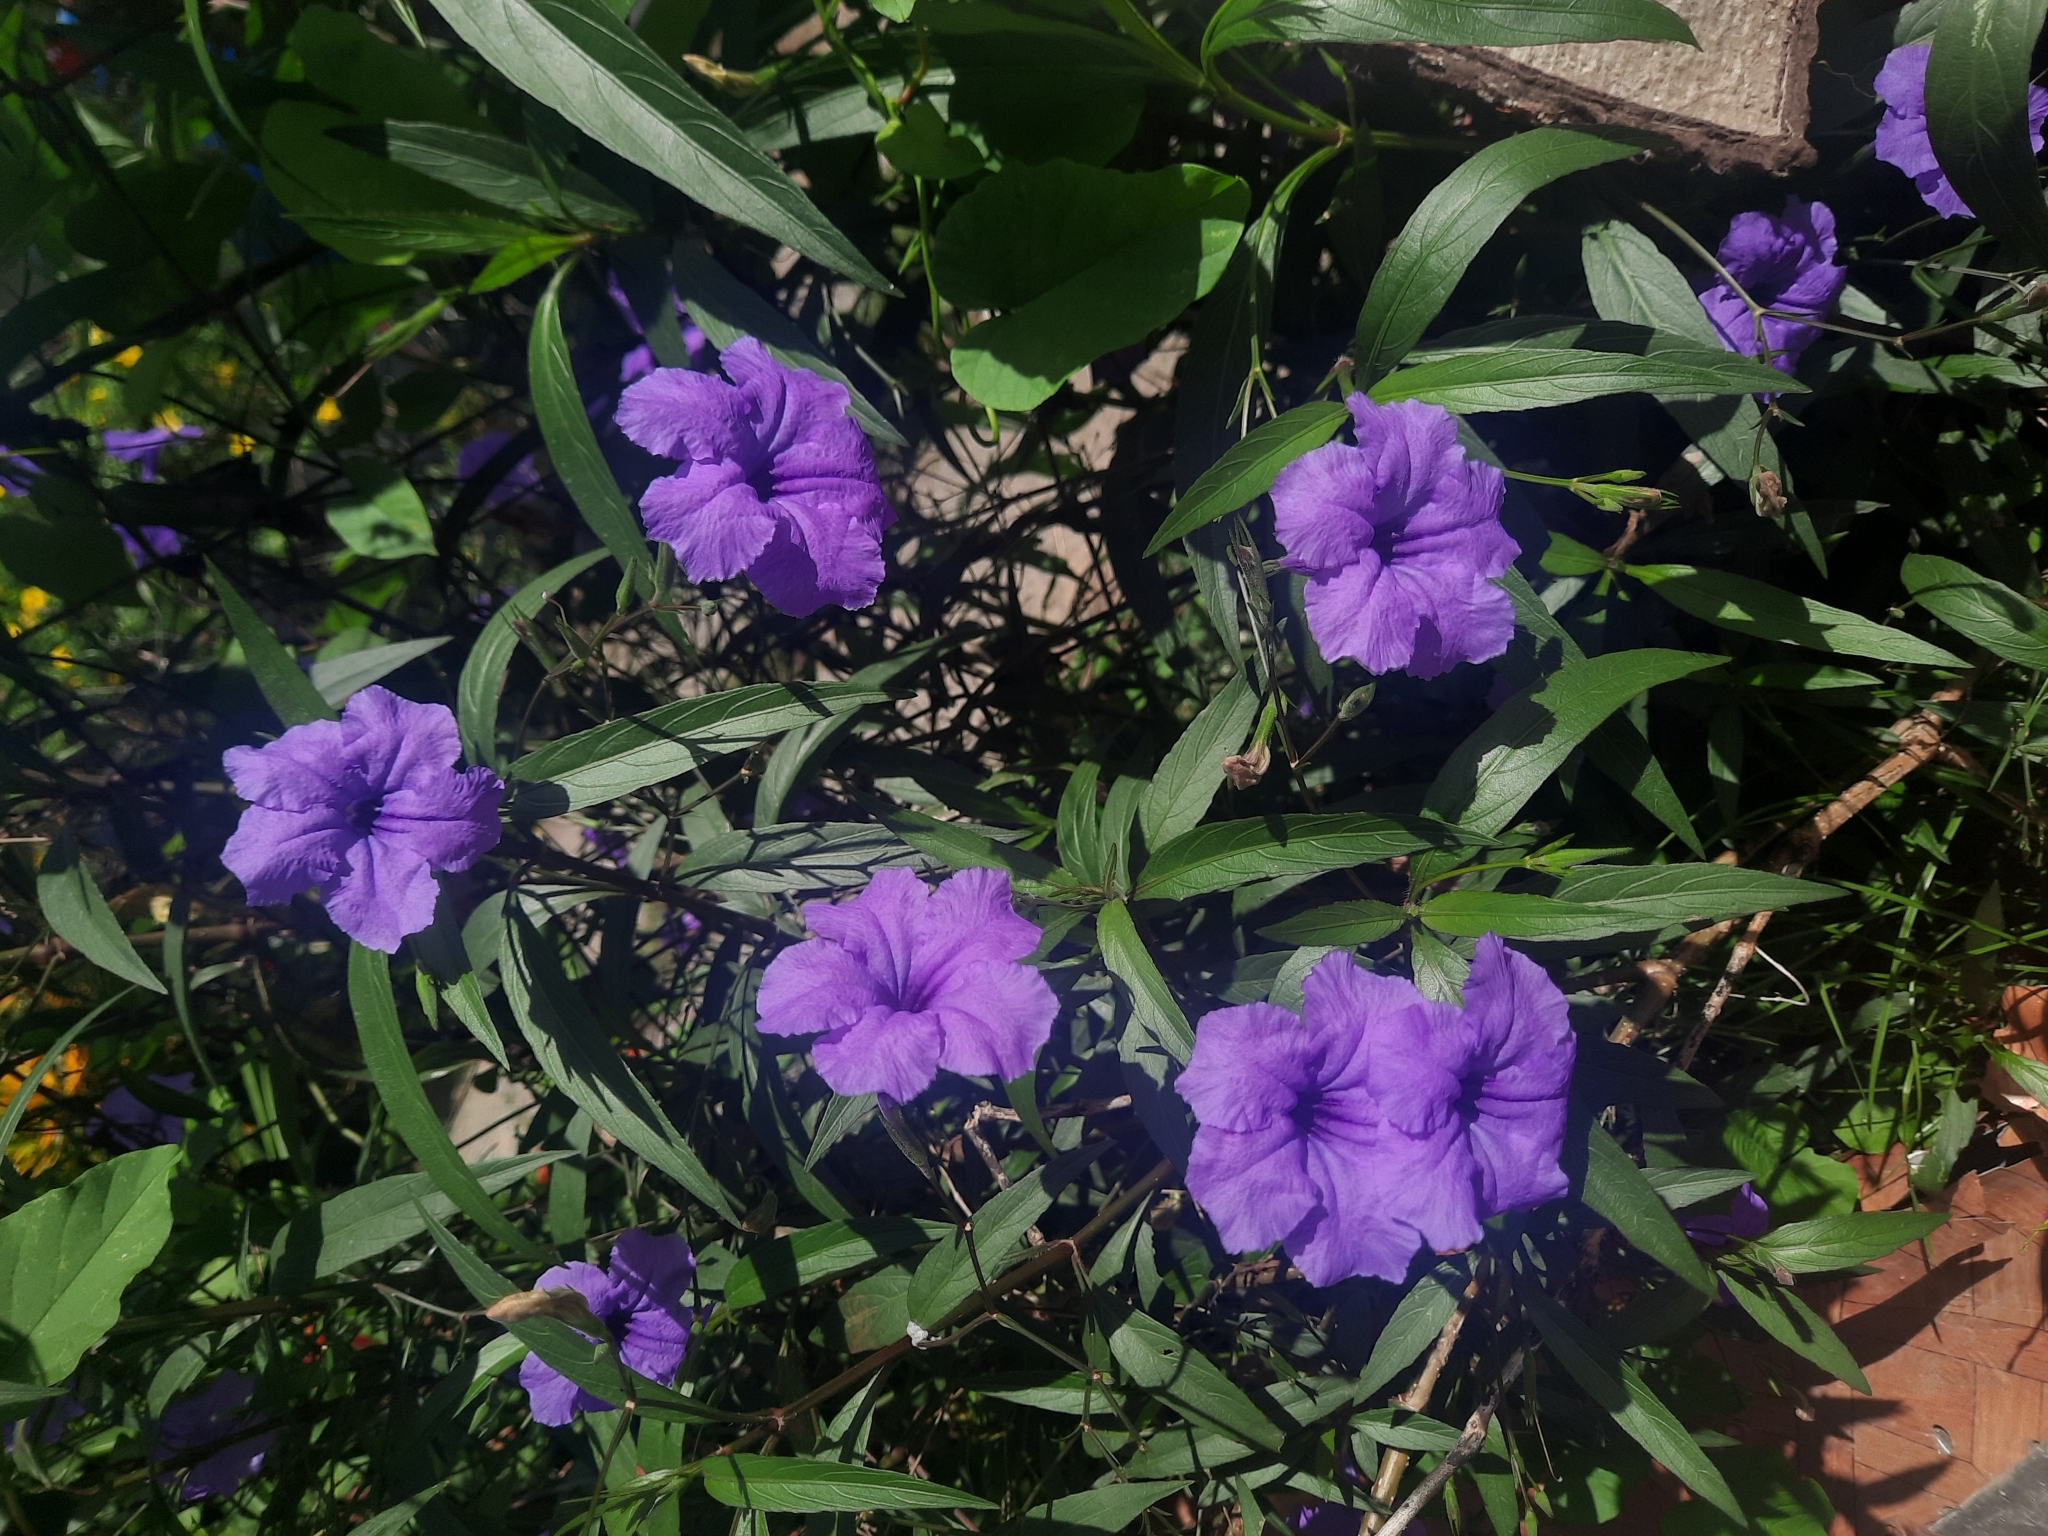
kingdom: Plantae
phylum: Tracheophyta
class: Magnoliopsida
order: Lamiales
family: Acanthaceae
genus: Ruellia
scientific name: Ruellia simplex
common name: Softseed wild petunia
